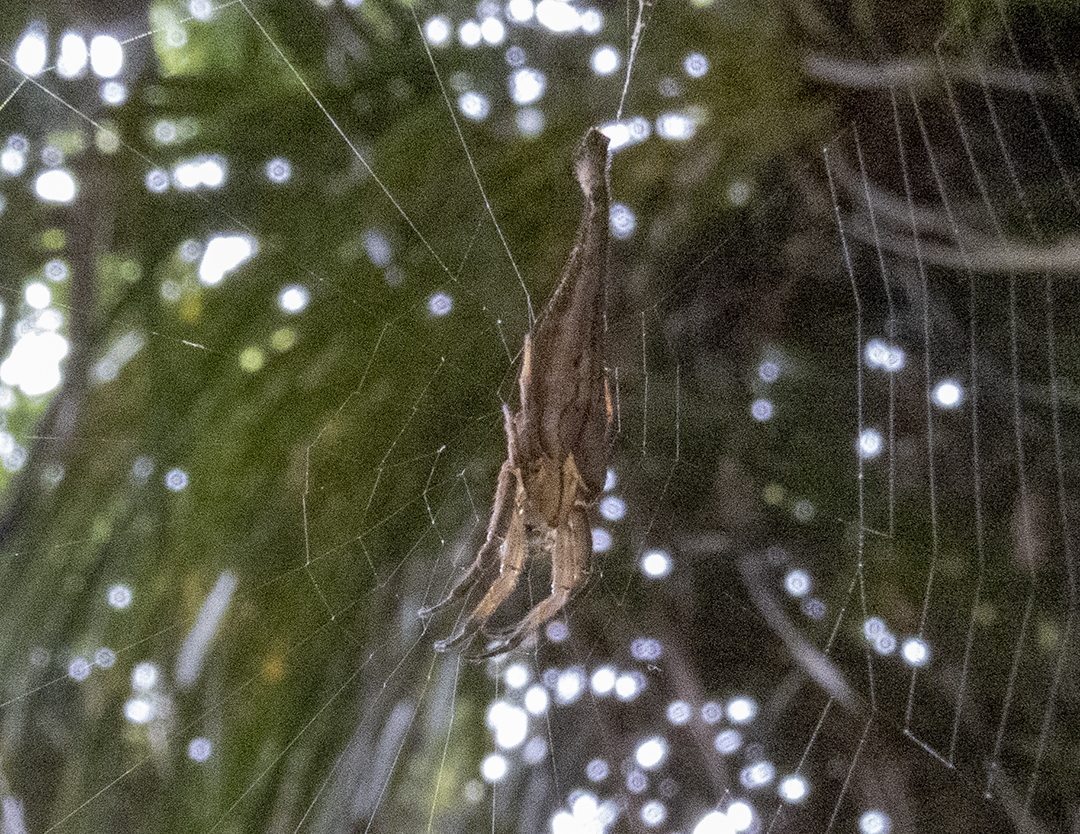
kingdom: Animalia
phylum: Arthropoda
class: Arachnida
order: Araneae
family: Araneidae
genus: Arachnura
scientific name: Arachnura feredayi
